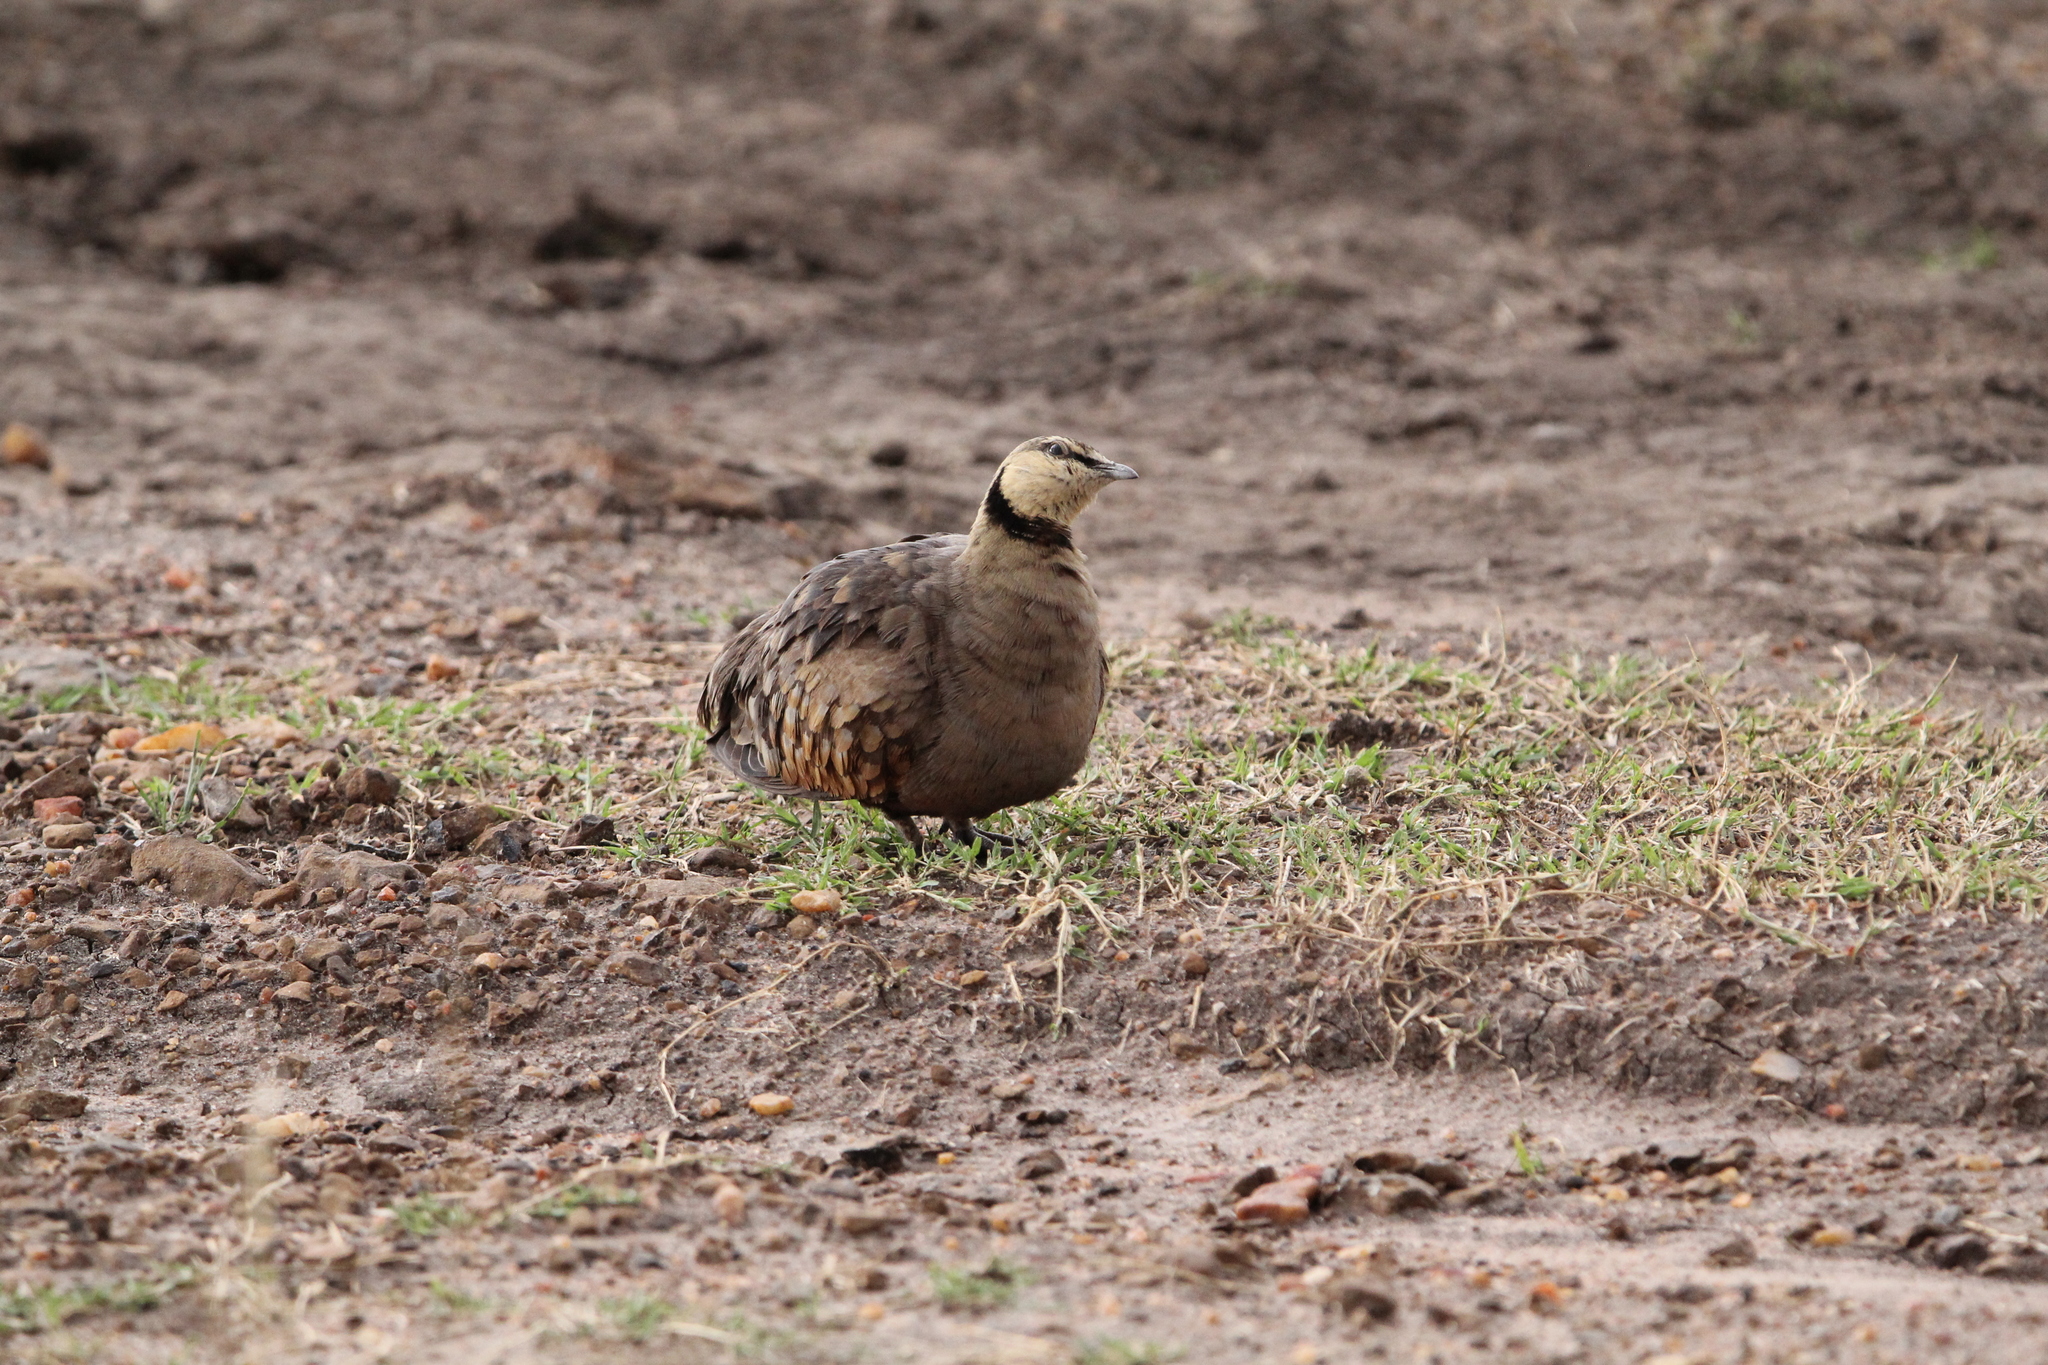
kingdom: Animalia
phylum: Chordata
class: Aves
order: Pteroclidiformes
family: Pteroclididae
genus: Pterocles
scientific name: Pterocles gutturalis
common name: Yellow-throated sandgrouse
